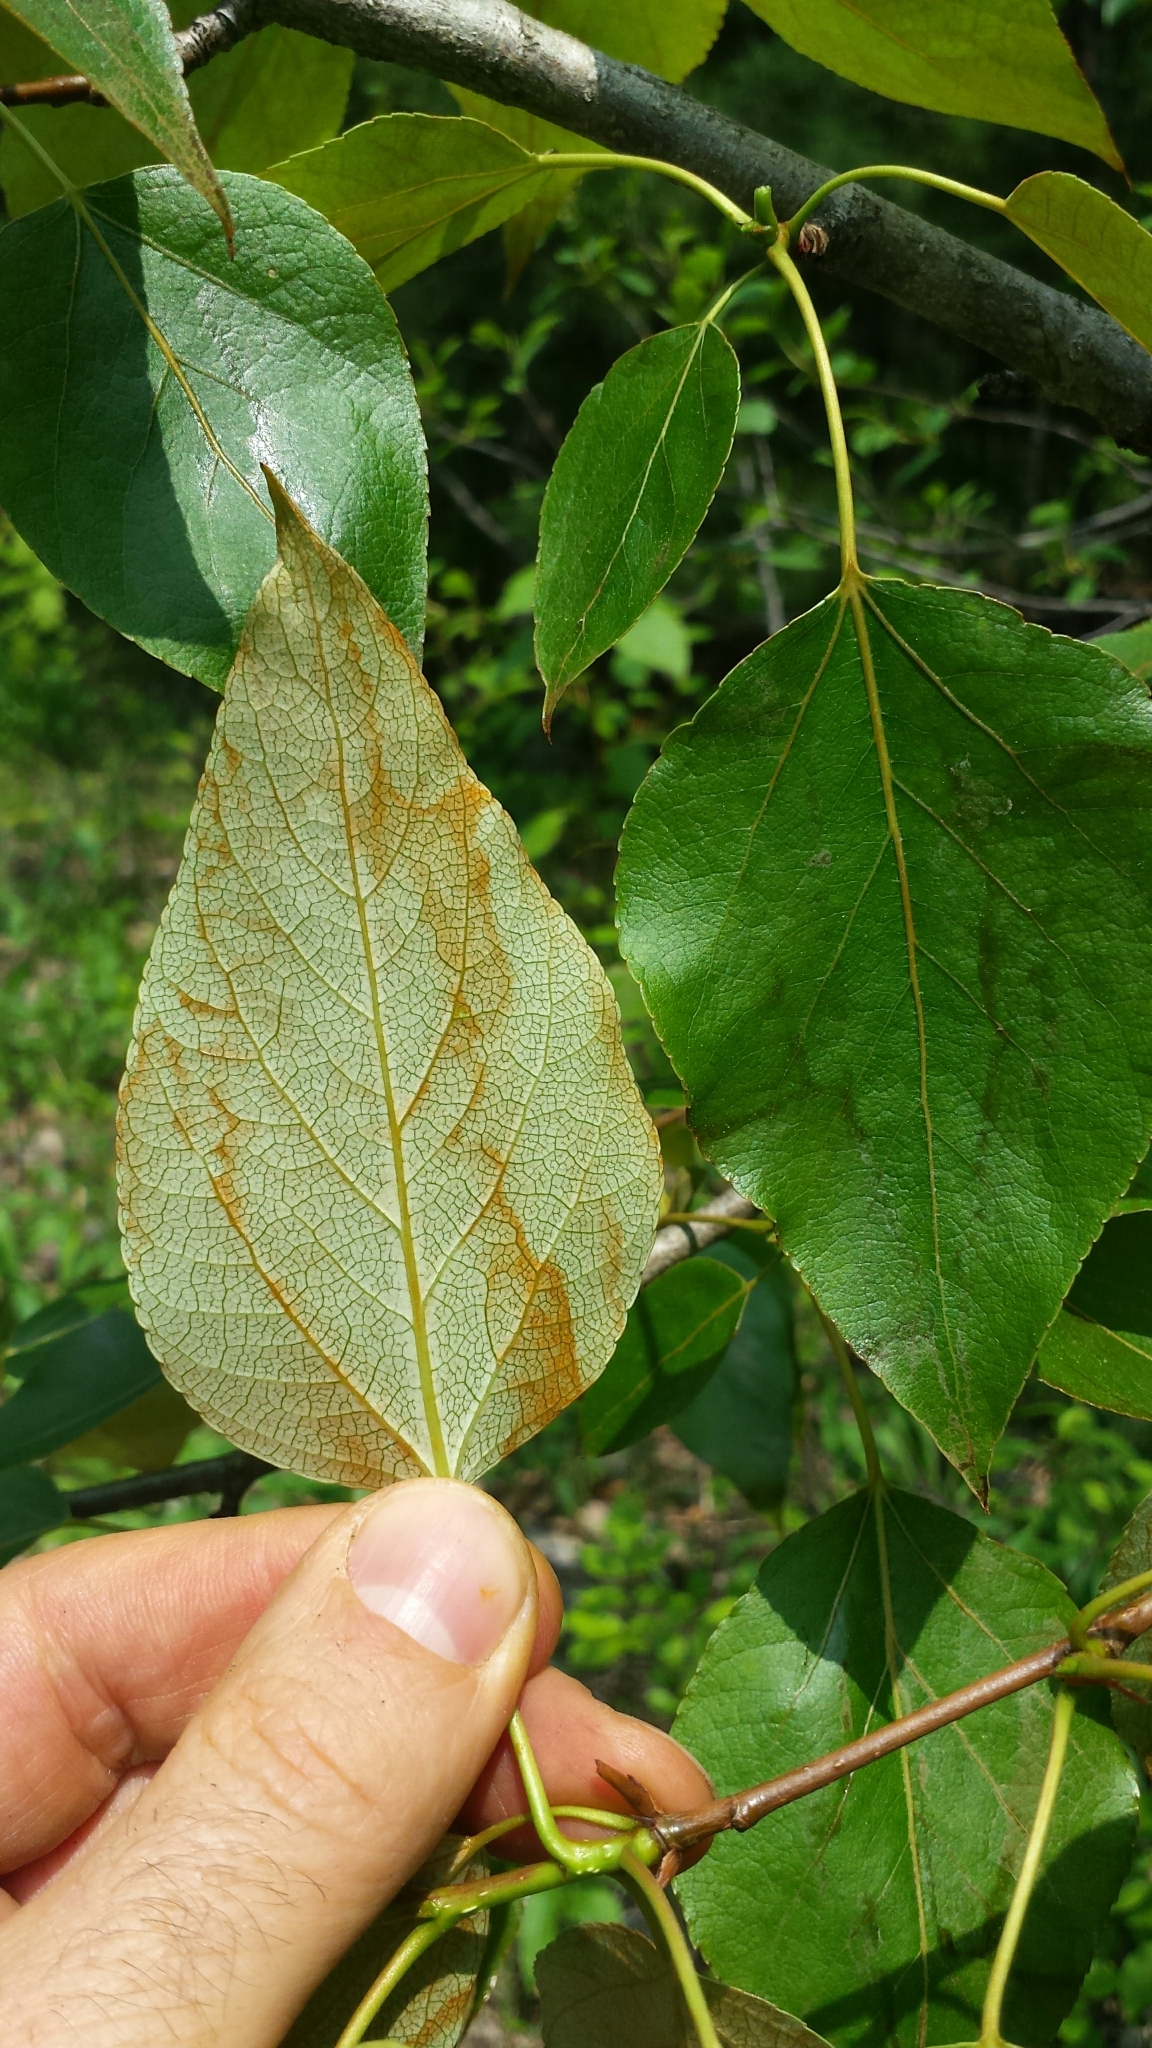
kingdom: Plantae
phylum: Tracheophyta
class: Magnoliopsida
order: Malpighiales
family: Salicaceae
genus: Populus
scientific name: Populus balsamifera
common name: Balsam poplar
